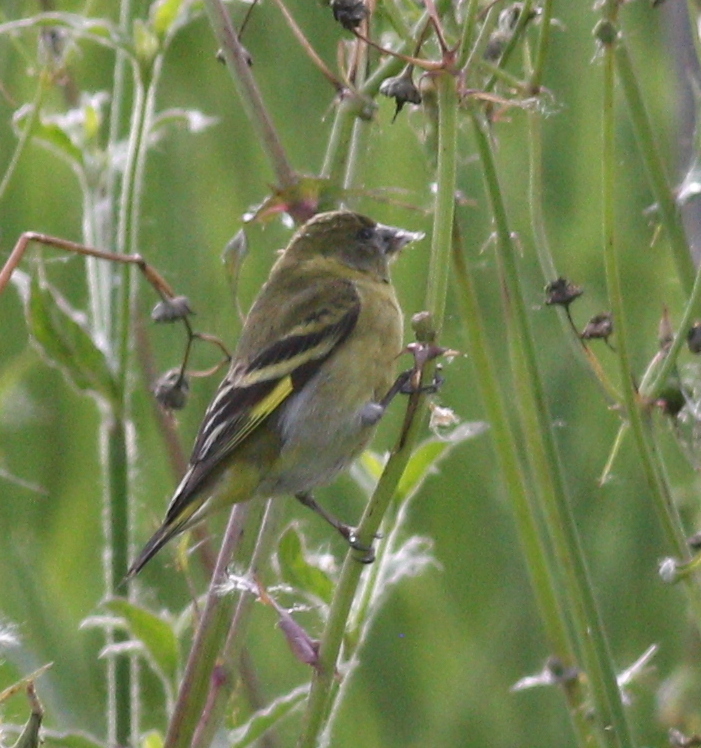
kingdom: Animalia
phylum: Chordata
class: Aves
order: Passeriformes
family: Fringillidae
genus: Spinus
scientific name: Spinus magellanicus
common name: Hooded siskin
